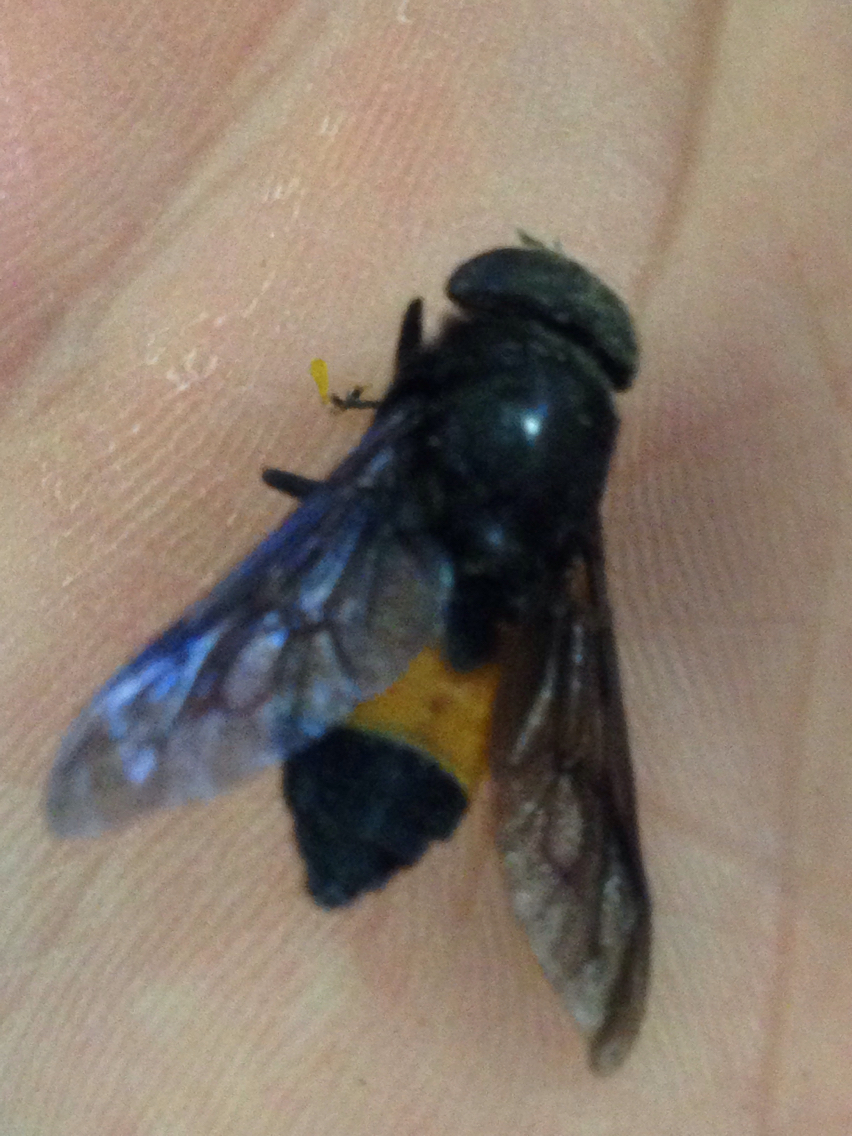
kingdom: Animalia
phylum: Arthropoda
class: Insecta
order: Diptera
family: Tabanidae
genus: Hybomitra
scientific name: Hybomitra cincta
